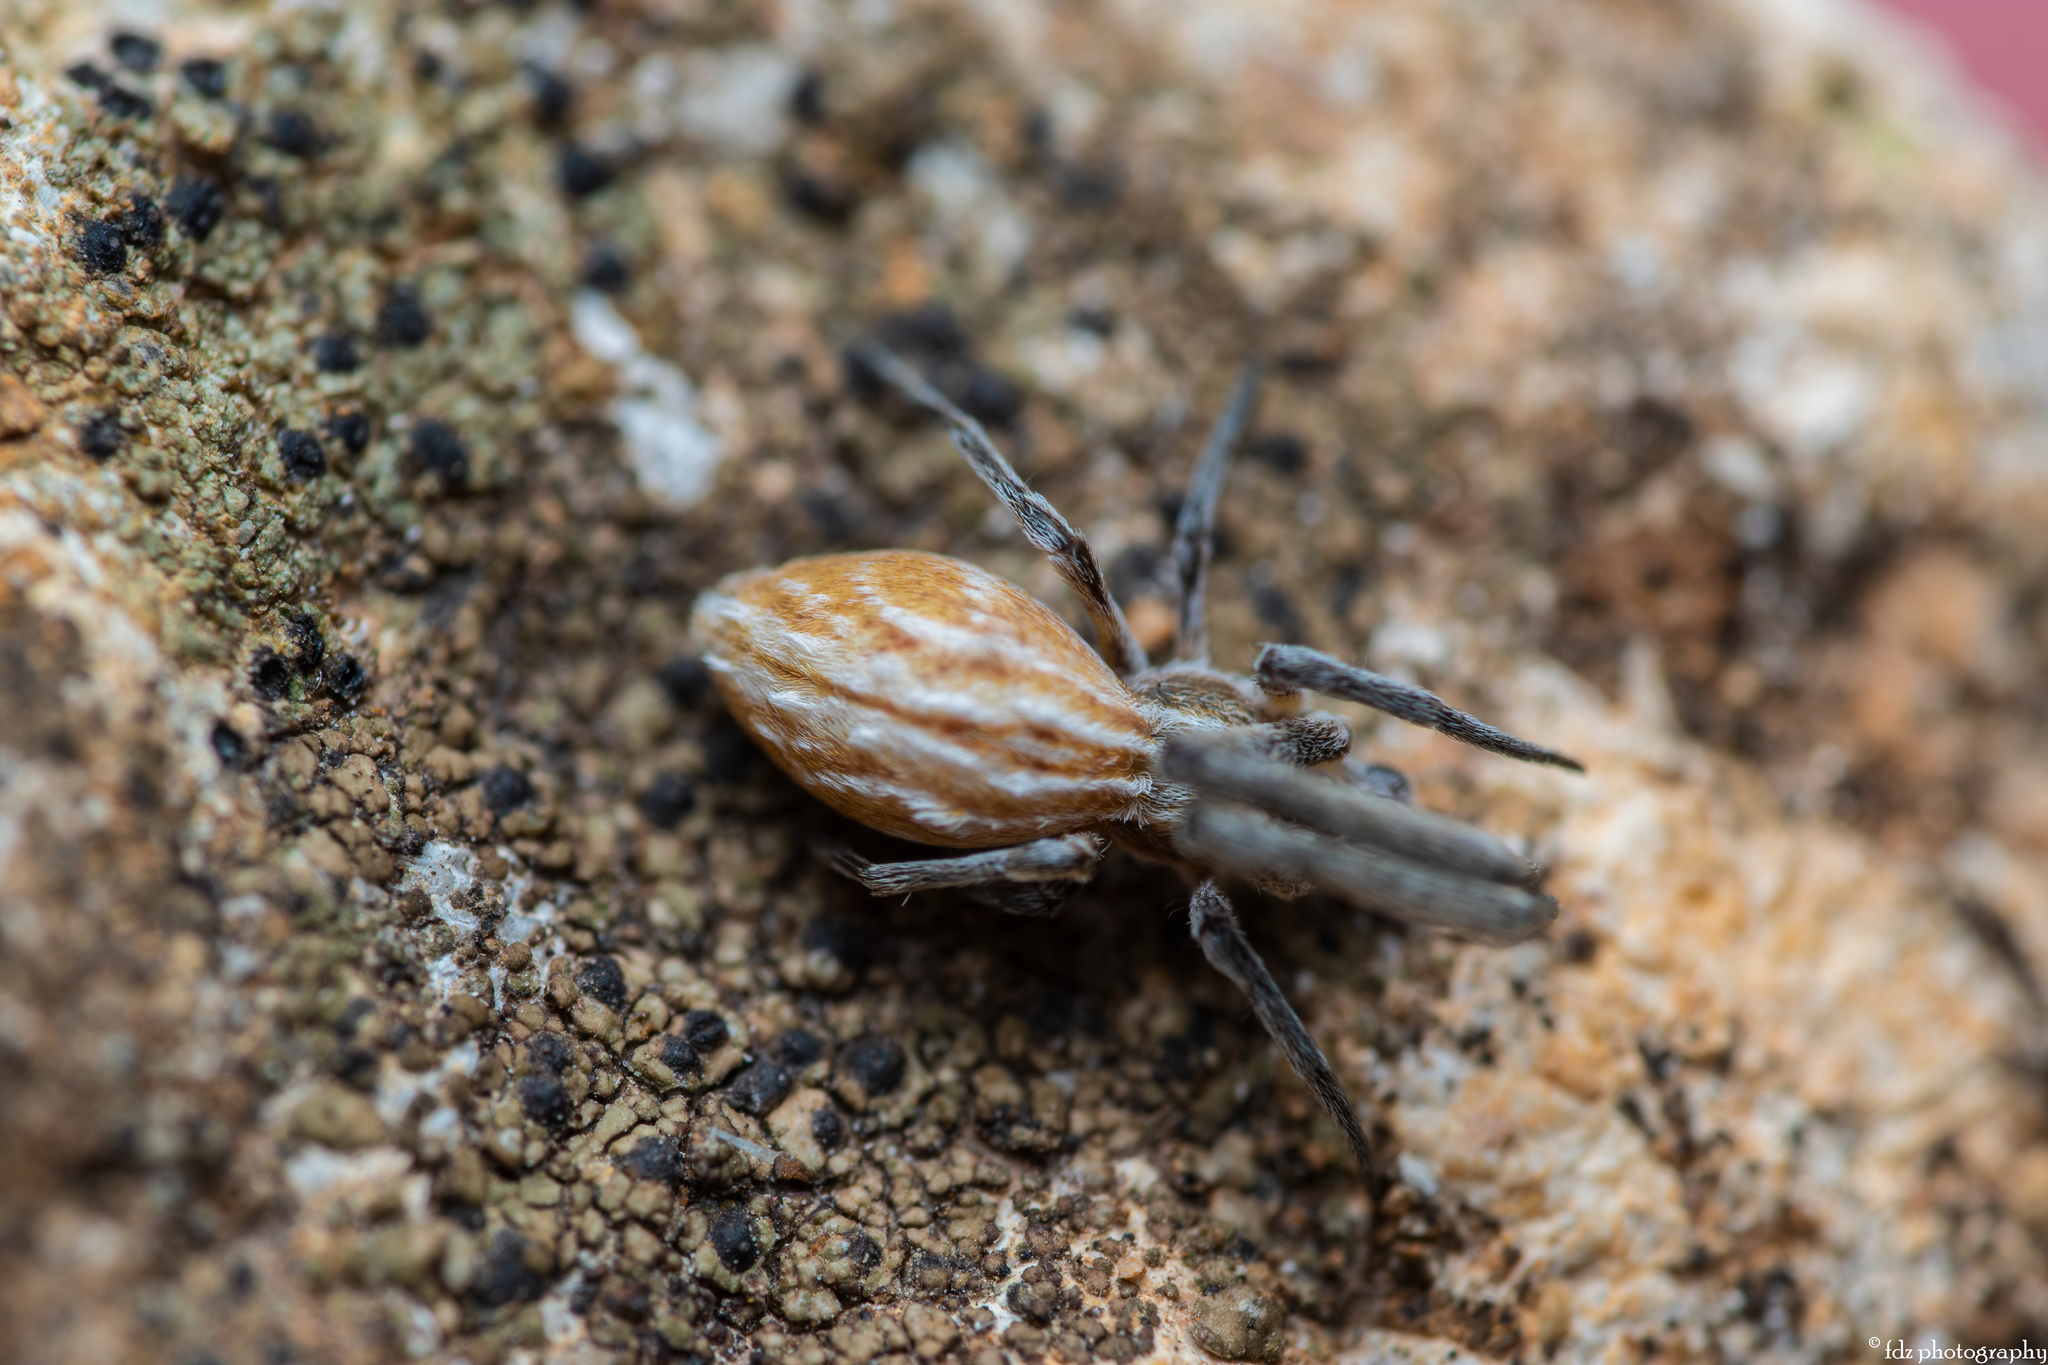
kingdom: Animalia
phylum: Arthropoda
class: Arachnida
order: Araneae
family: Uloboridae
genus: Uloborus
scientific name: Uloborus walckenaerius
